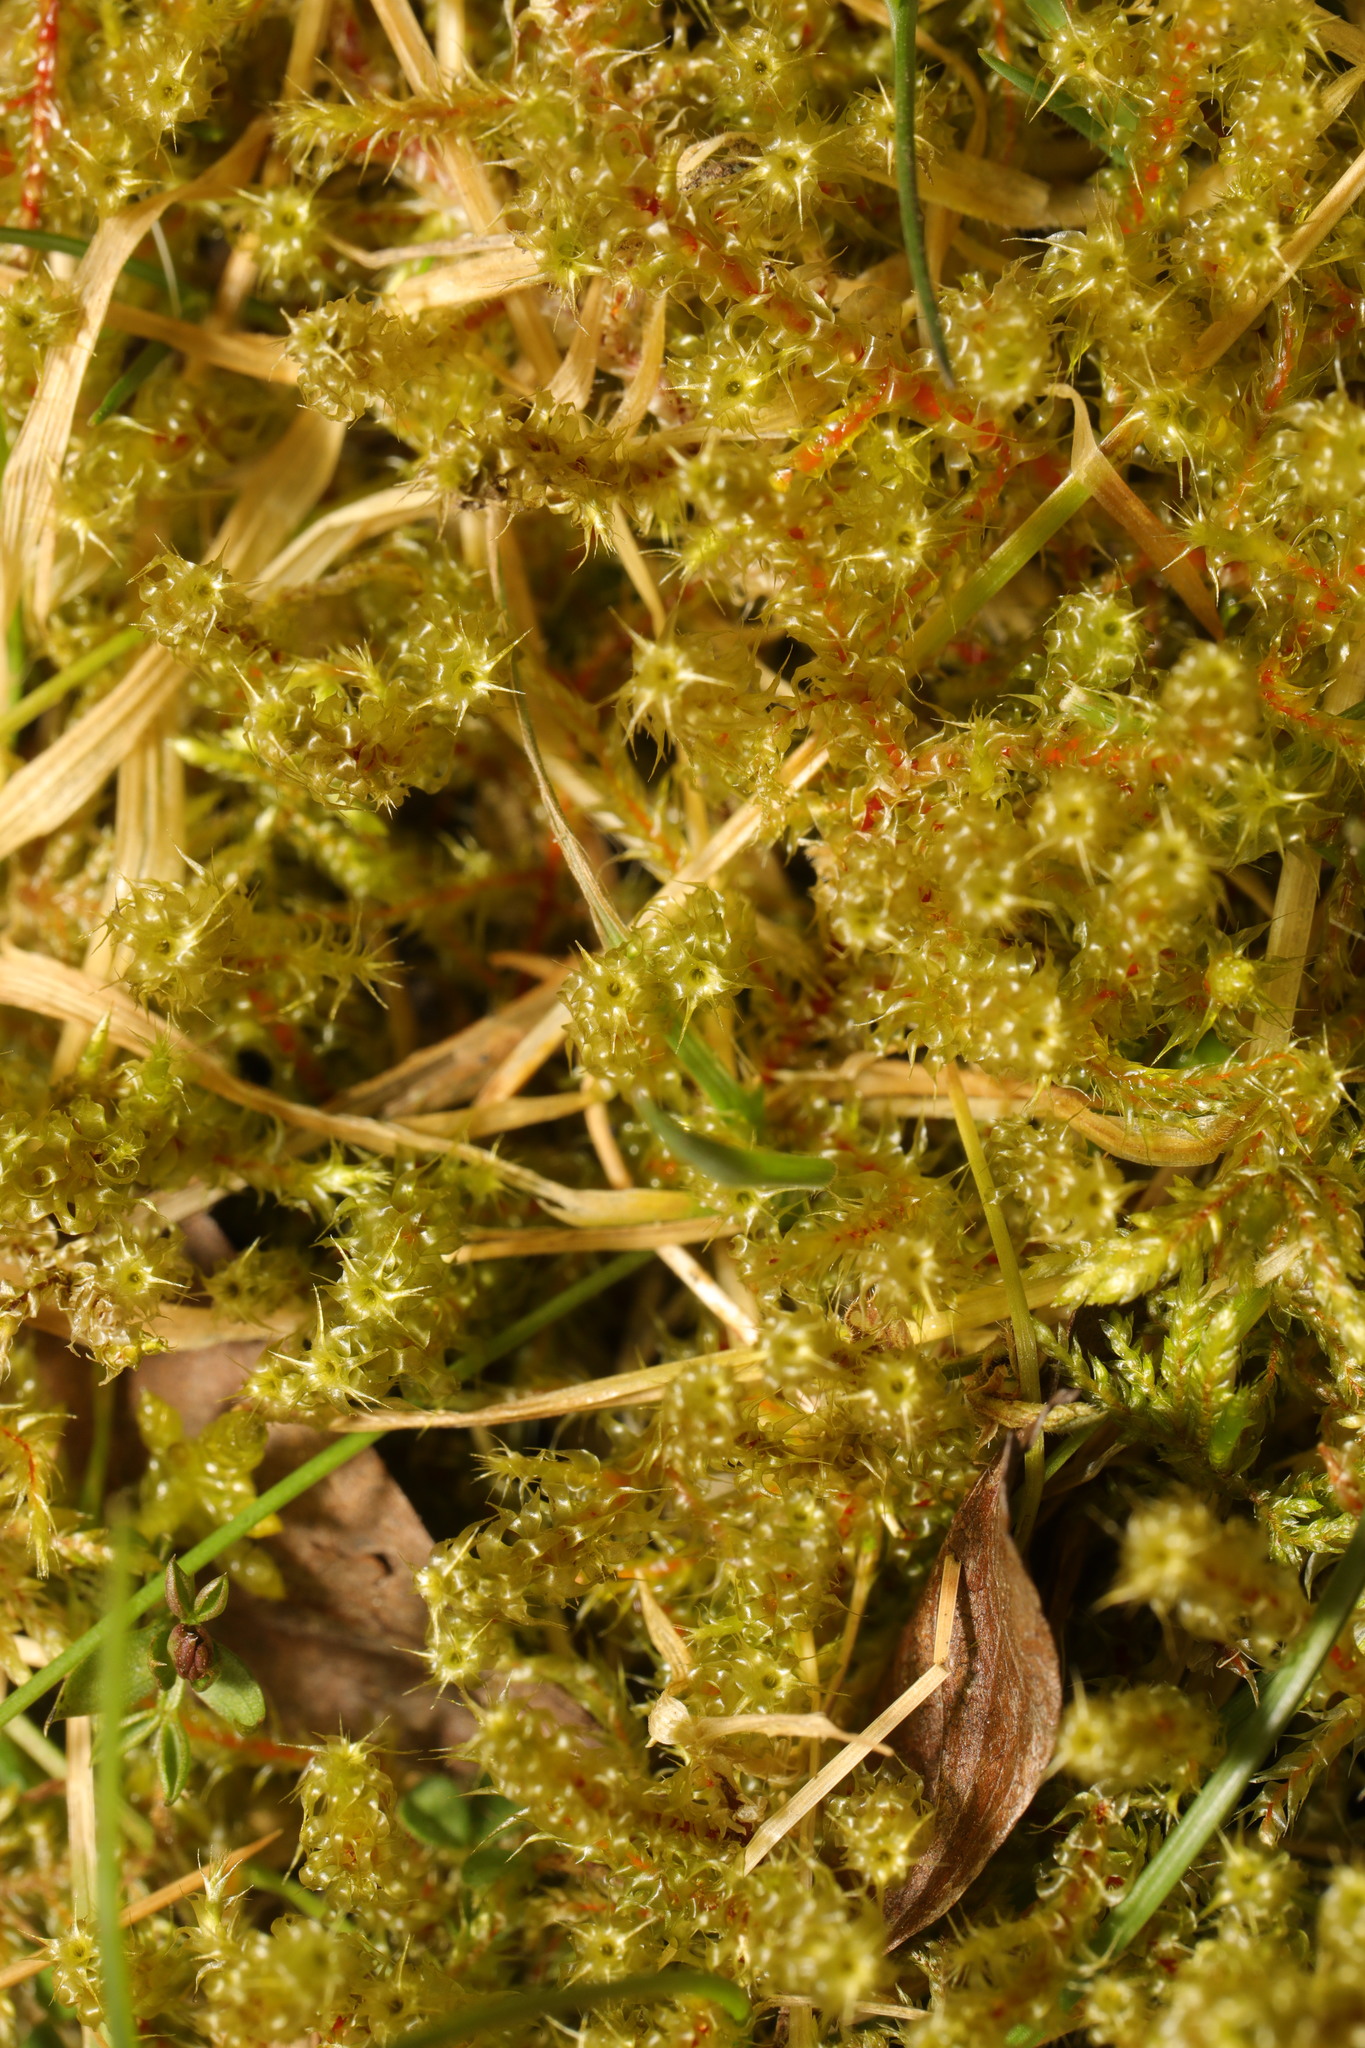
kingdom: Plantae
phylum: Bryophyta
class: Bryopsida
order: Hypnales
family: Hylocomiaceae
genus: Rhytidiadelphus
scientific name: Rhytidiadelphus squarrosus
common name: Springy turf-moss
